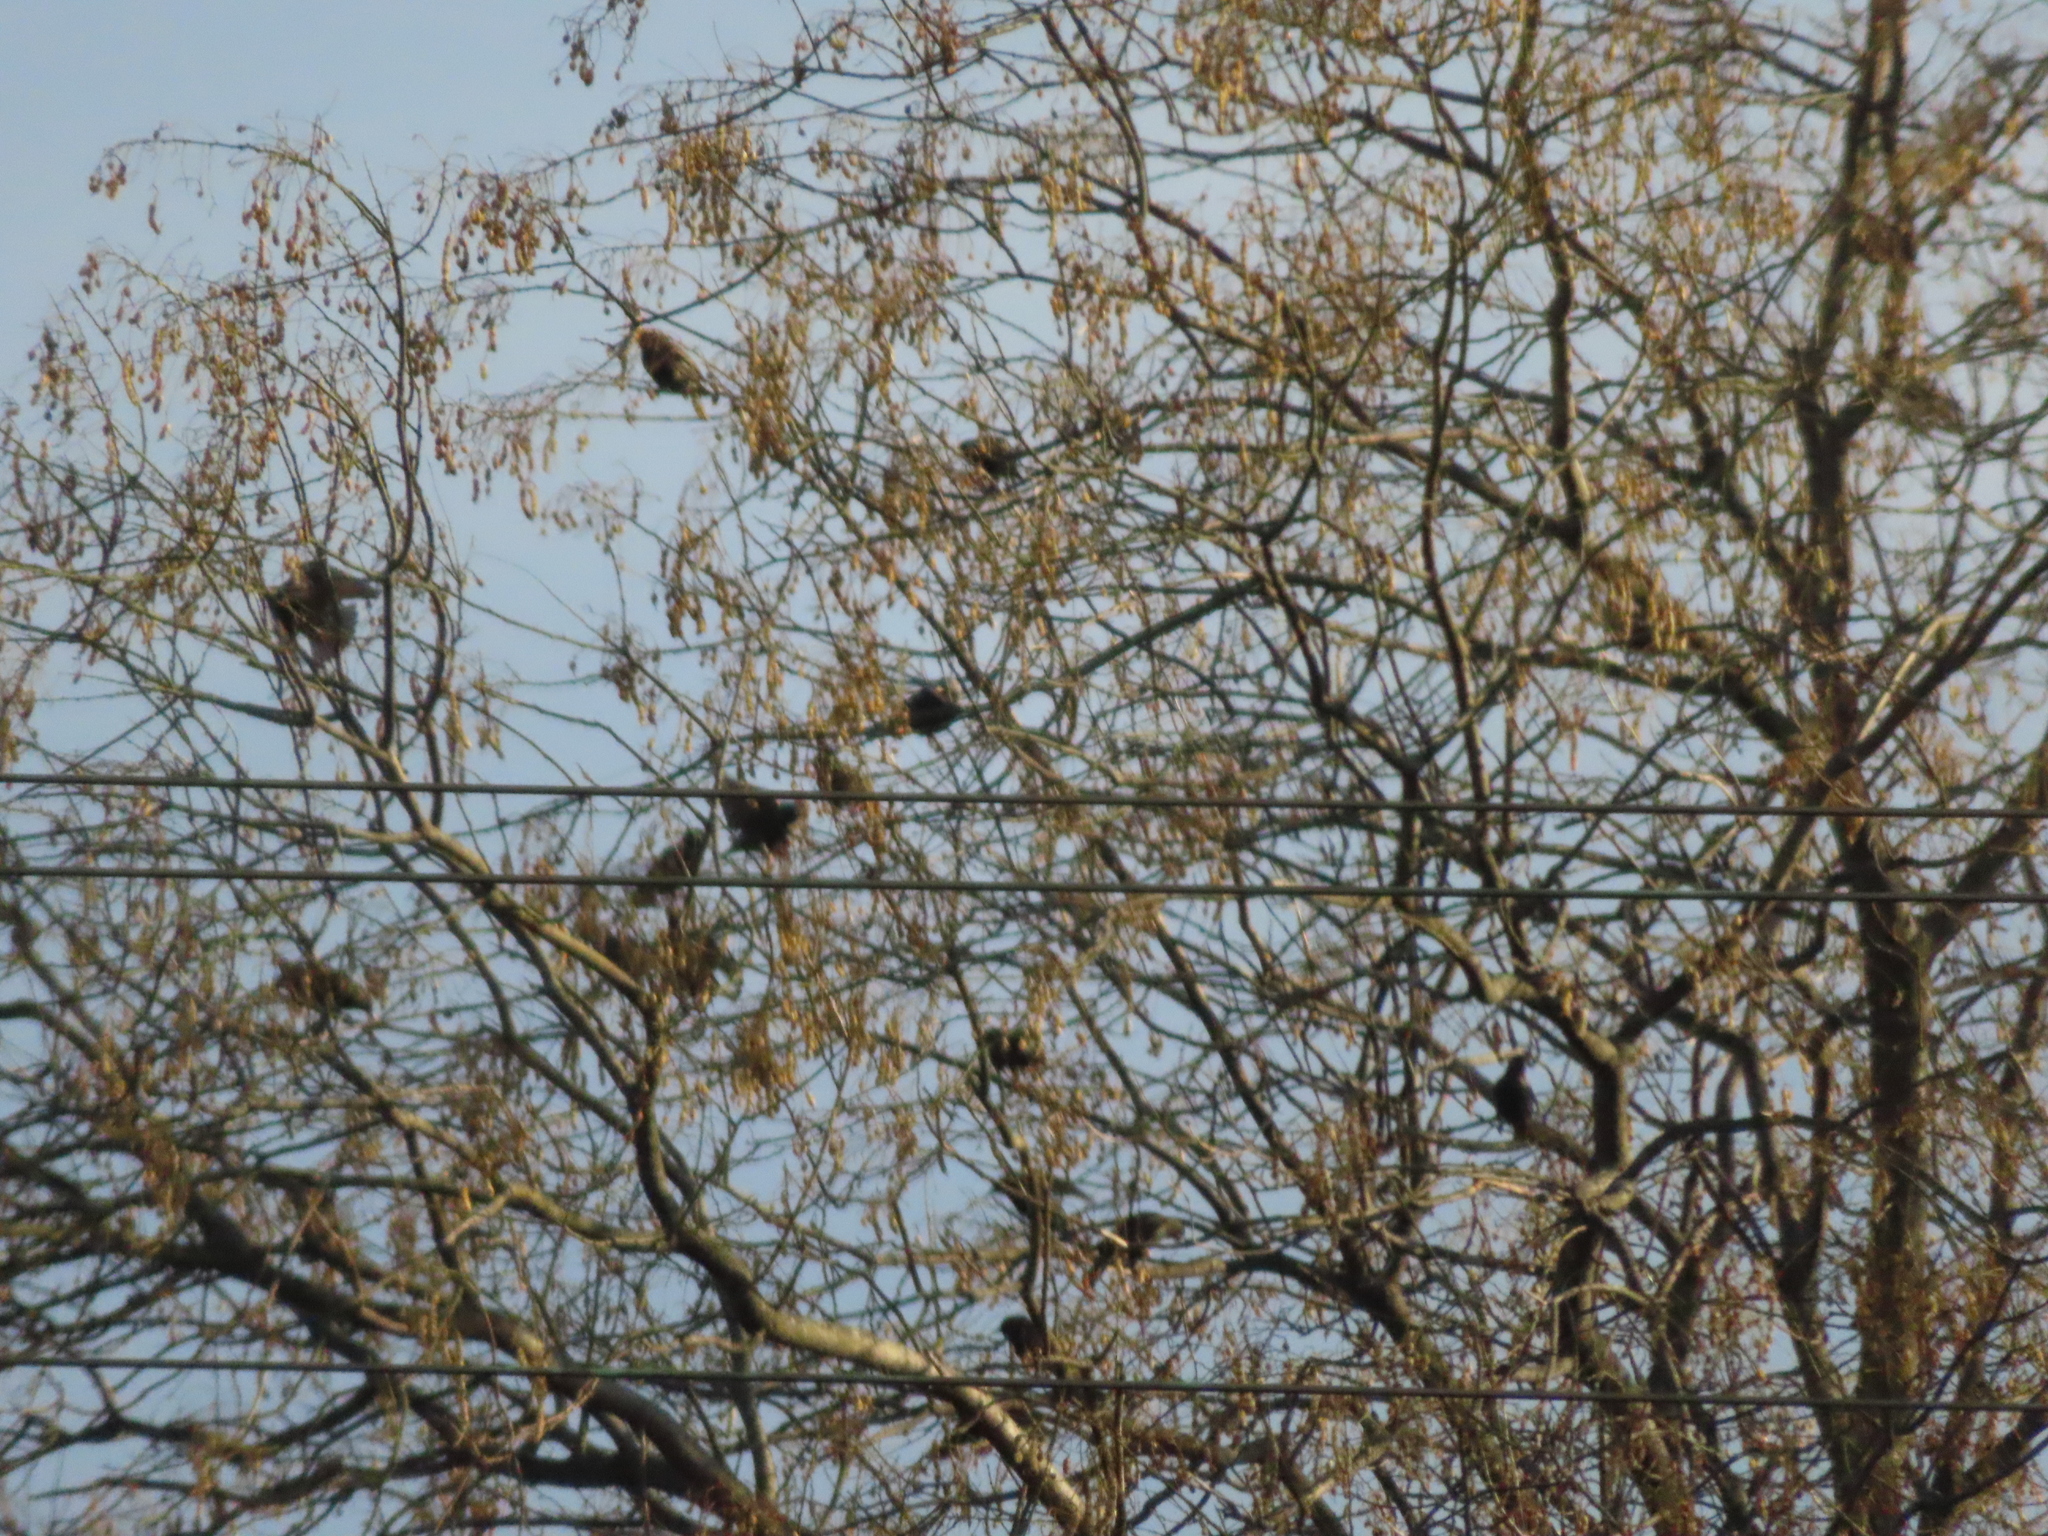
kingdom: Animalia
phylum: Chordata
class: Aves
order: Passeriformes
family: Sturnidae
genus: Sturnus
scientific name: Sturnus vulgaris
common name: Common starling
